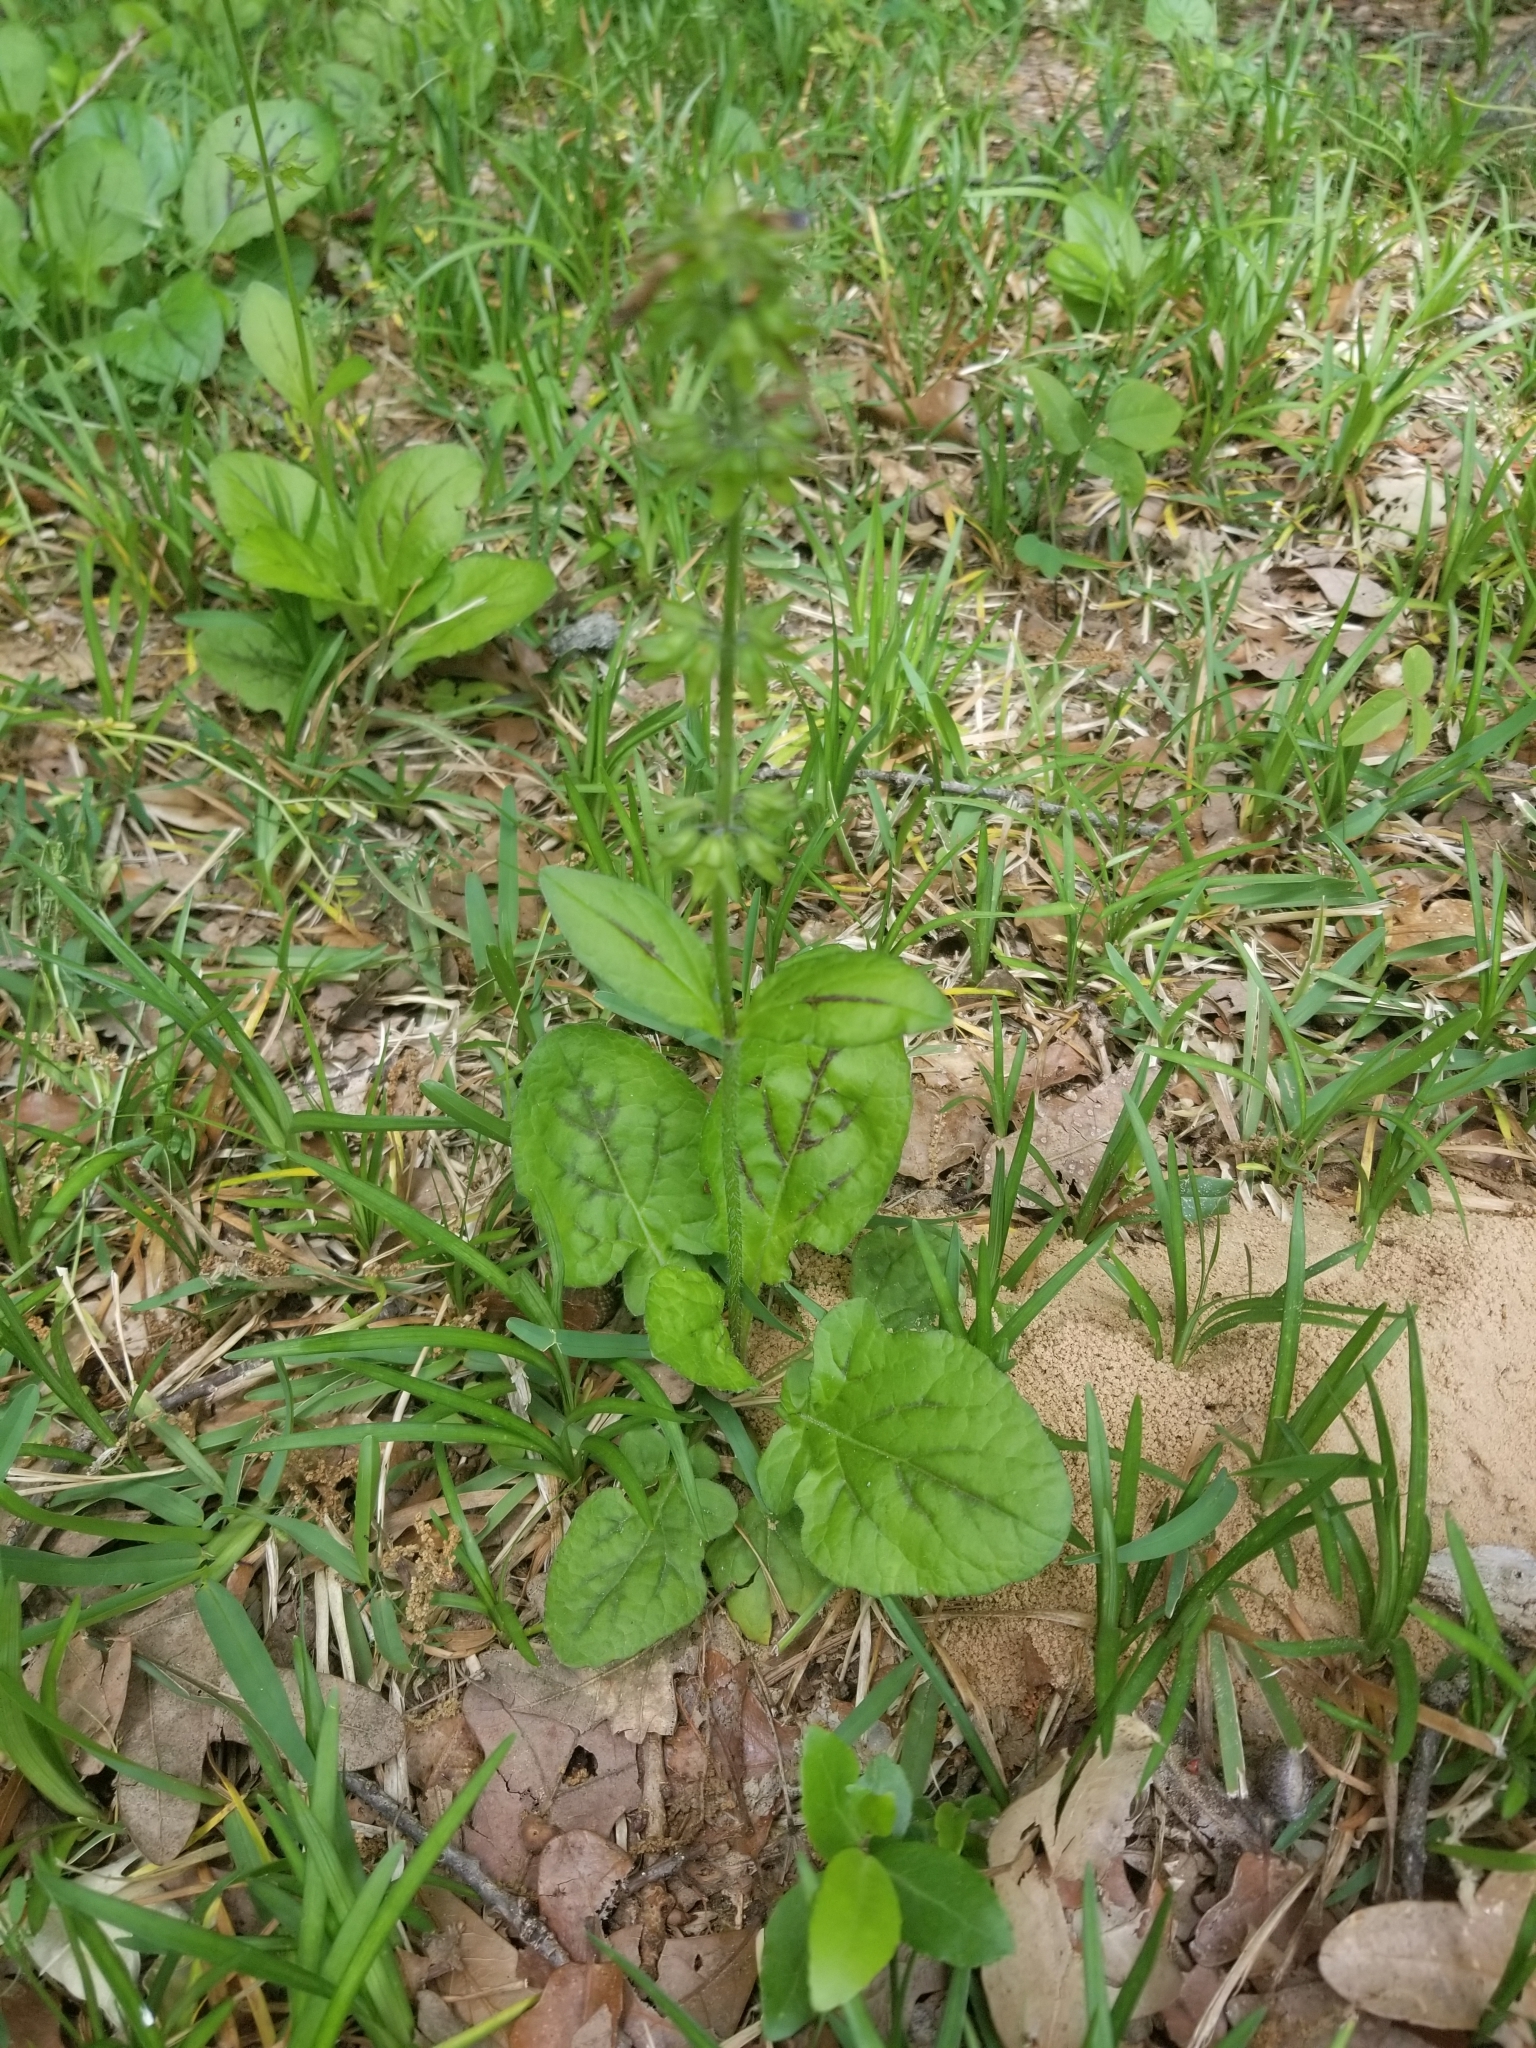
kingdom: Plantae
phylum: Tracheophyta
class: Magnoliopsida
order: Lamiales
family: Lamiaceae
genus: Salvia
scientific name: Salvia lyrata
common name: Cancerweed
